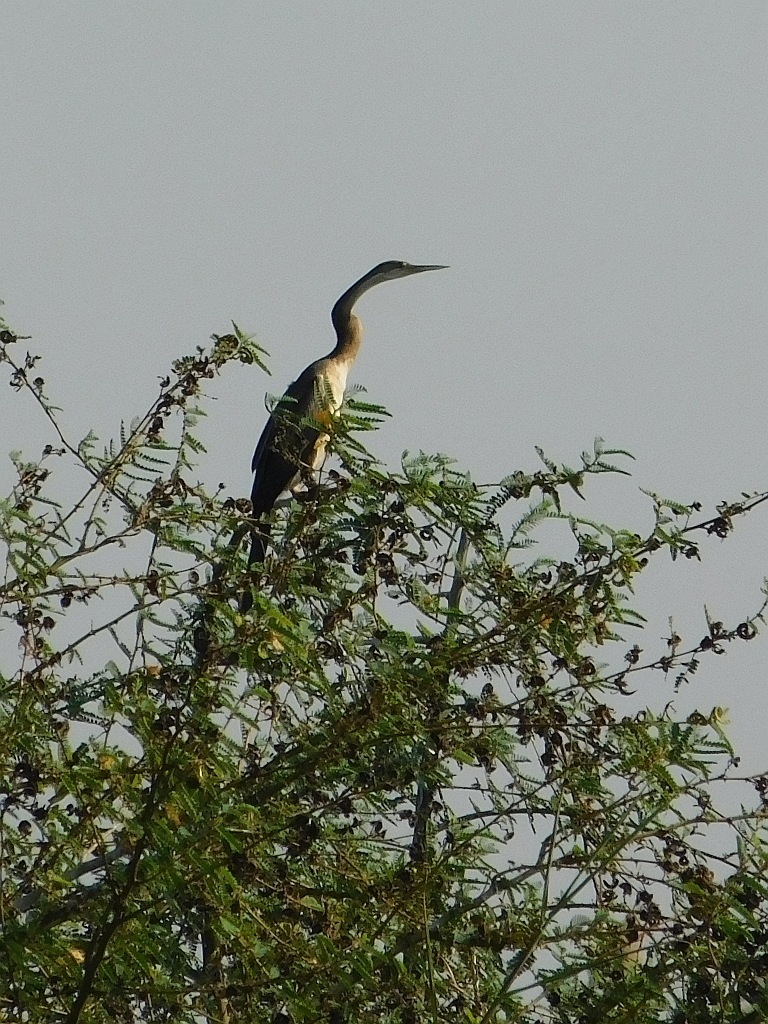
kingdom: Animalia
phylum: Chordata
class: Aves
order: Suliformes
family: Anhingidae
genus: Anhinga
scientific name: Anhinga rufa
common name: African darter
